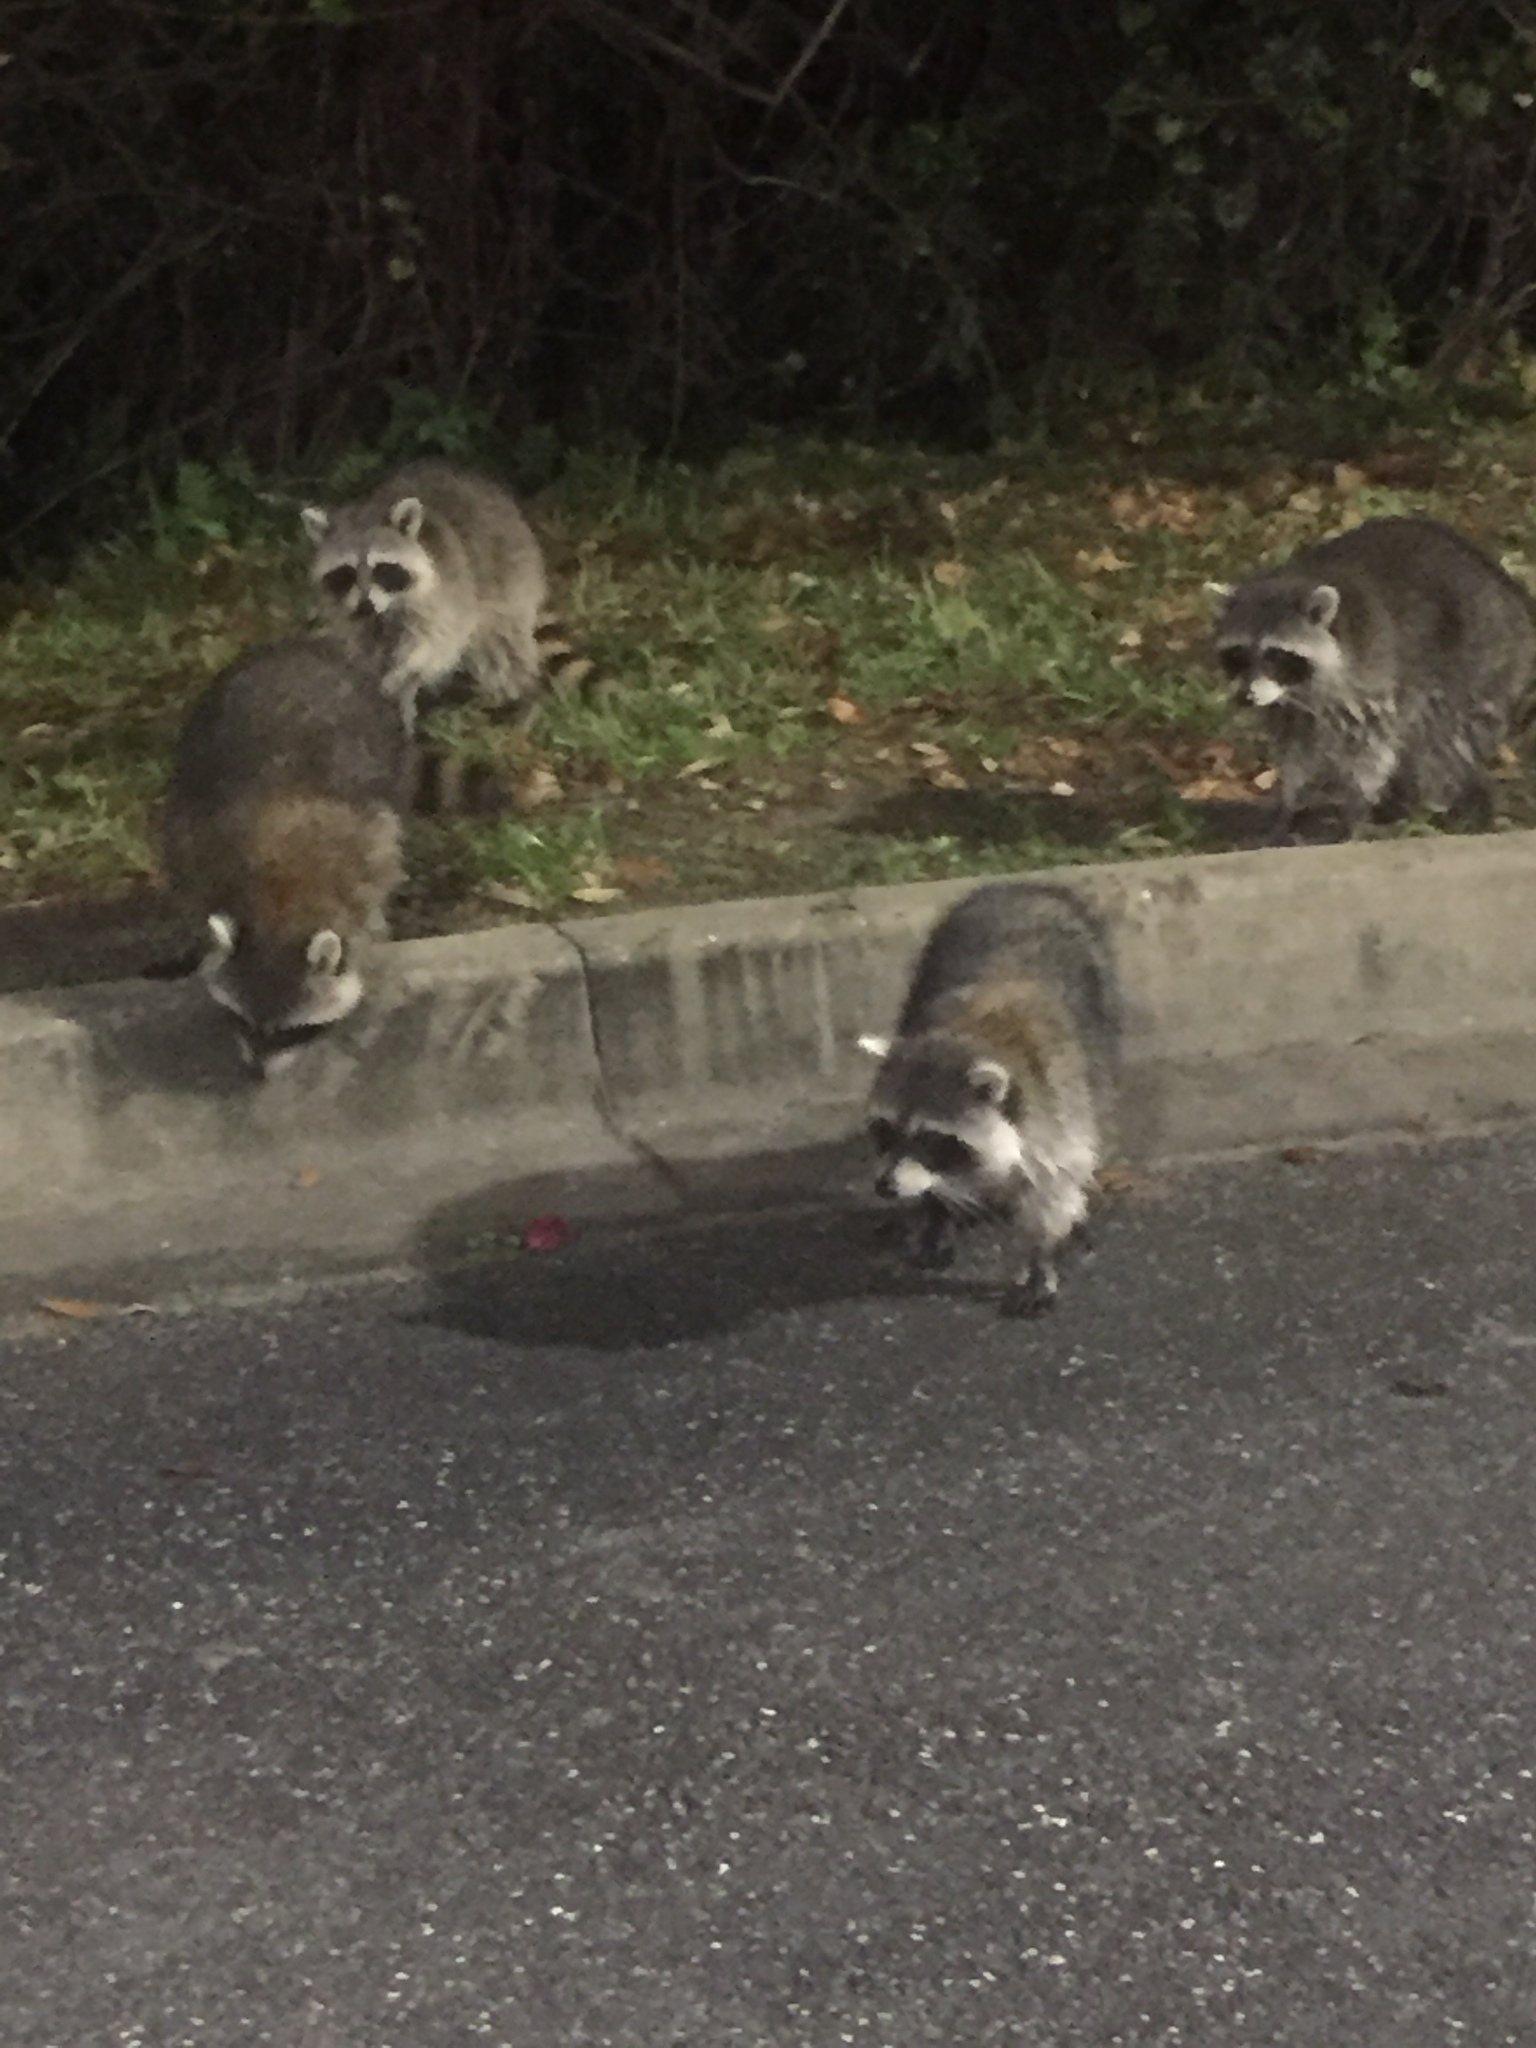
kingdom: Animalia
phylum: Chordata
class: Mammalia
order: Carnivora
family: Procyonidae
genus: Procyon
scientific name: Procyon lotor
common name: Raccoon
